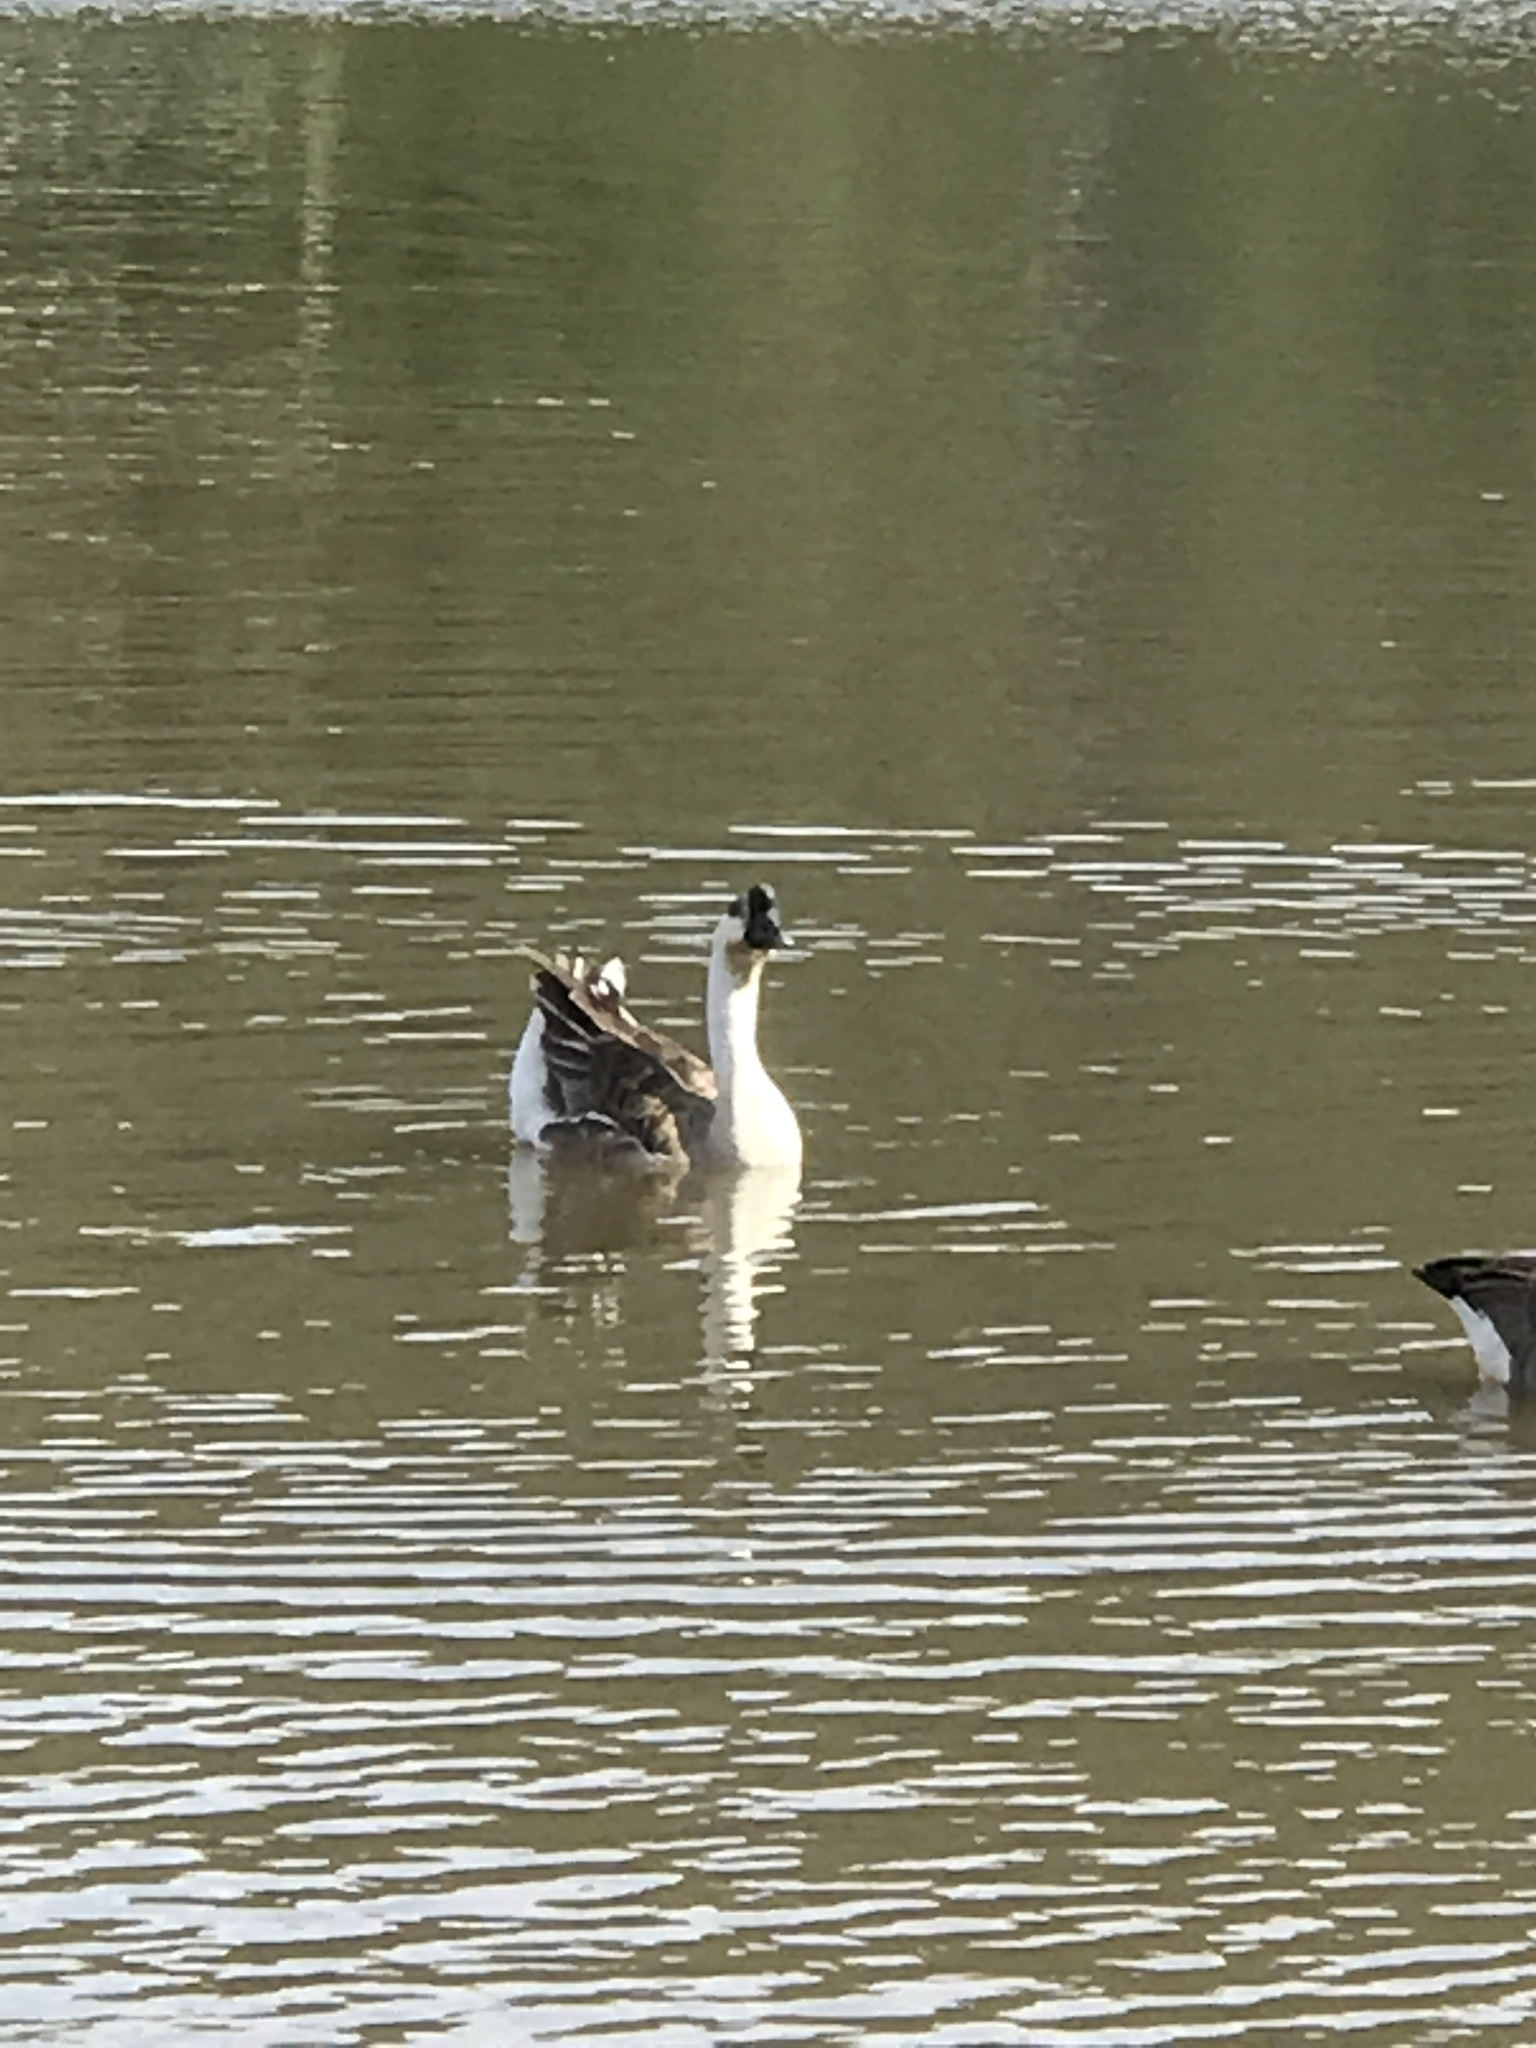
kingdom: Animalia
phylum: Chordata
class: Aves
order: Anseriformes
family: Anatidae
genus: Anser
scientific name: Anser cygnoides
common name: Swan goose
